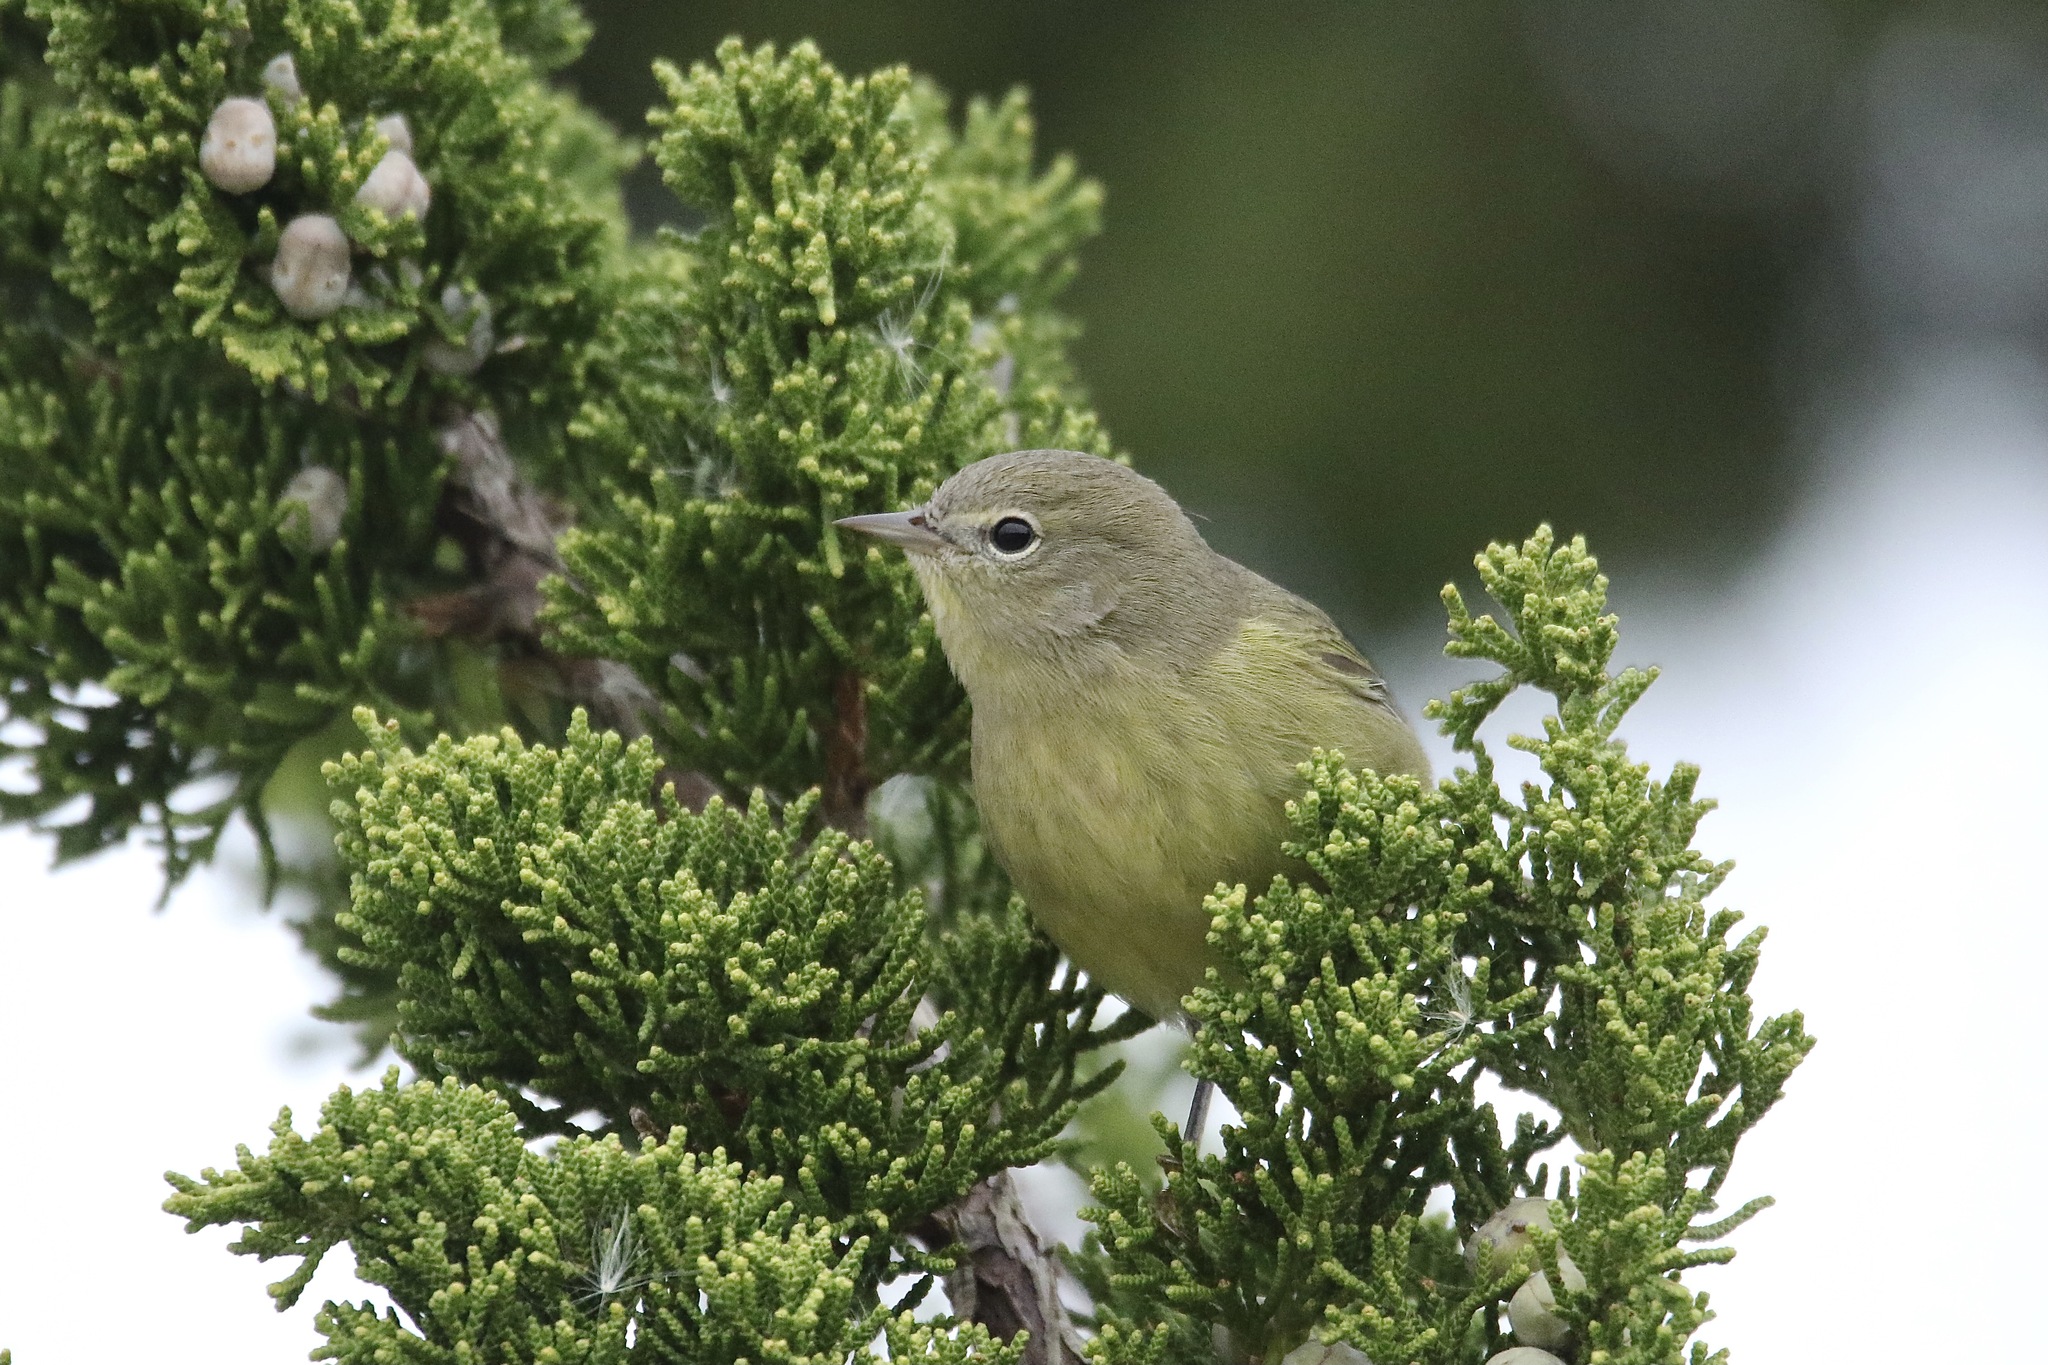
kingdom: Animalia
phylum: Chordata
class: Aves
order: Passeriformes
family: Parulidae
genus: Leiothlypis
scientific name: Leiothlypis celata
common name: Orange-crowned warbler
